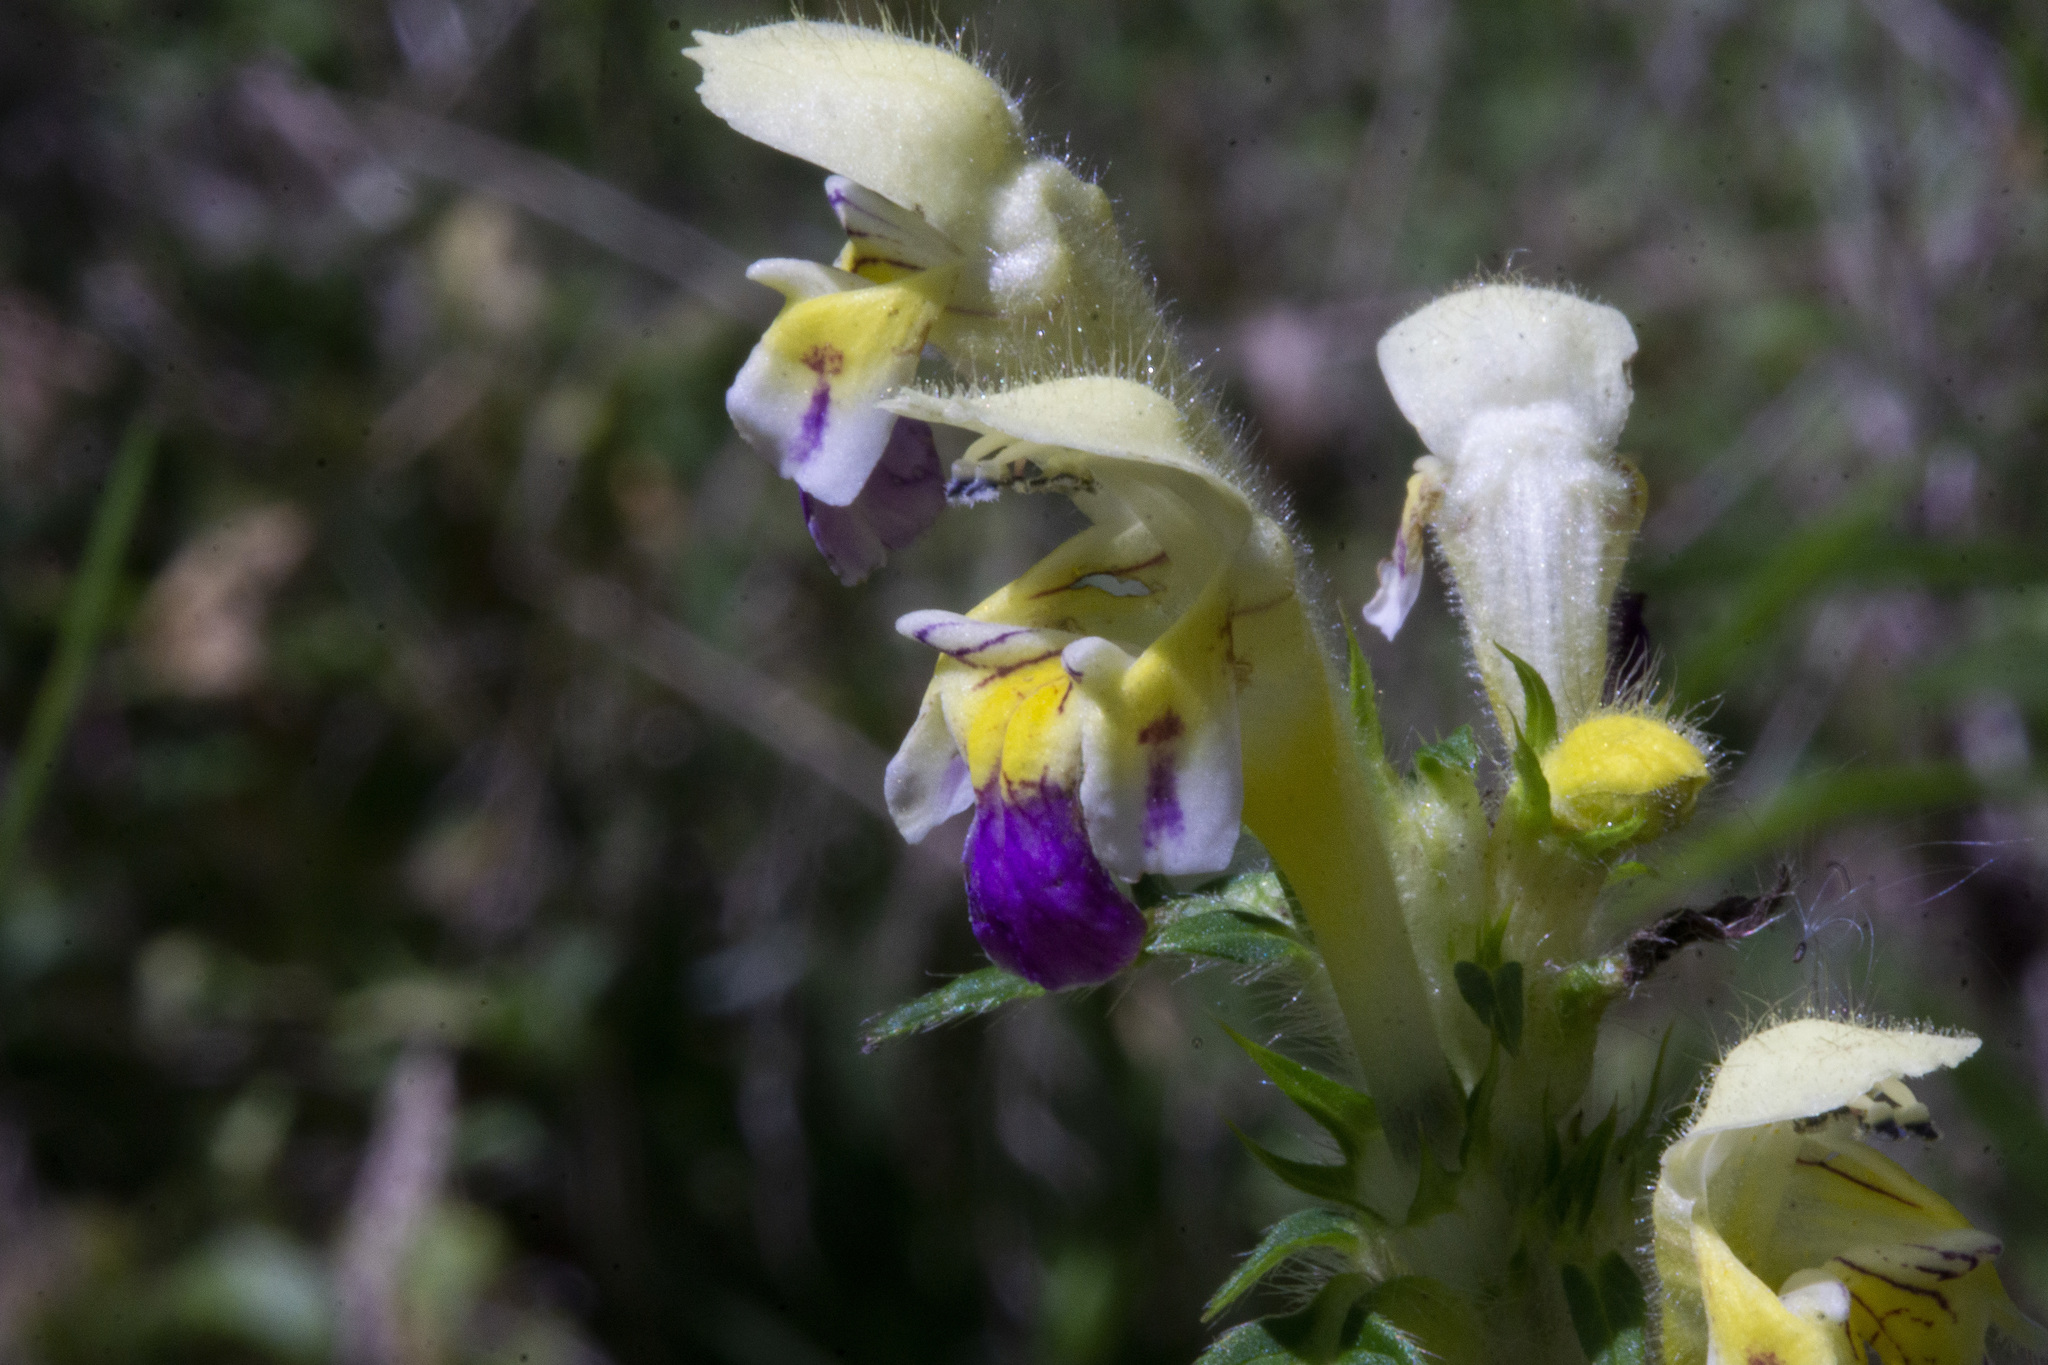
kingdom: Plantae
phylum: Tracheophyta
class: Magnoliopsida
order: Lamiales
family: Lamiaceae
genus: Galeopsis
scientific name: Galeopsis speciosa
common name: Large-flowered hemp-nettle
